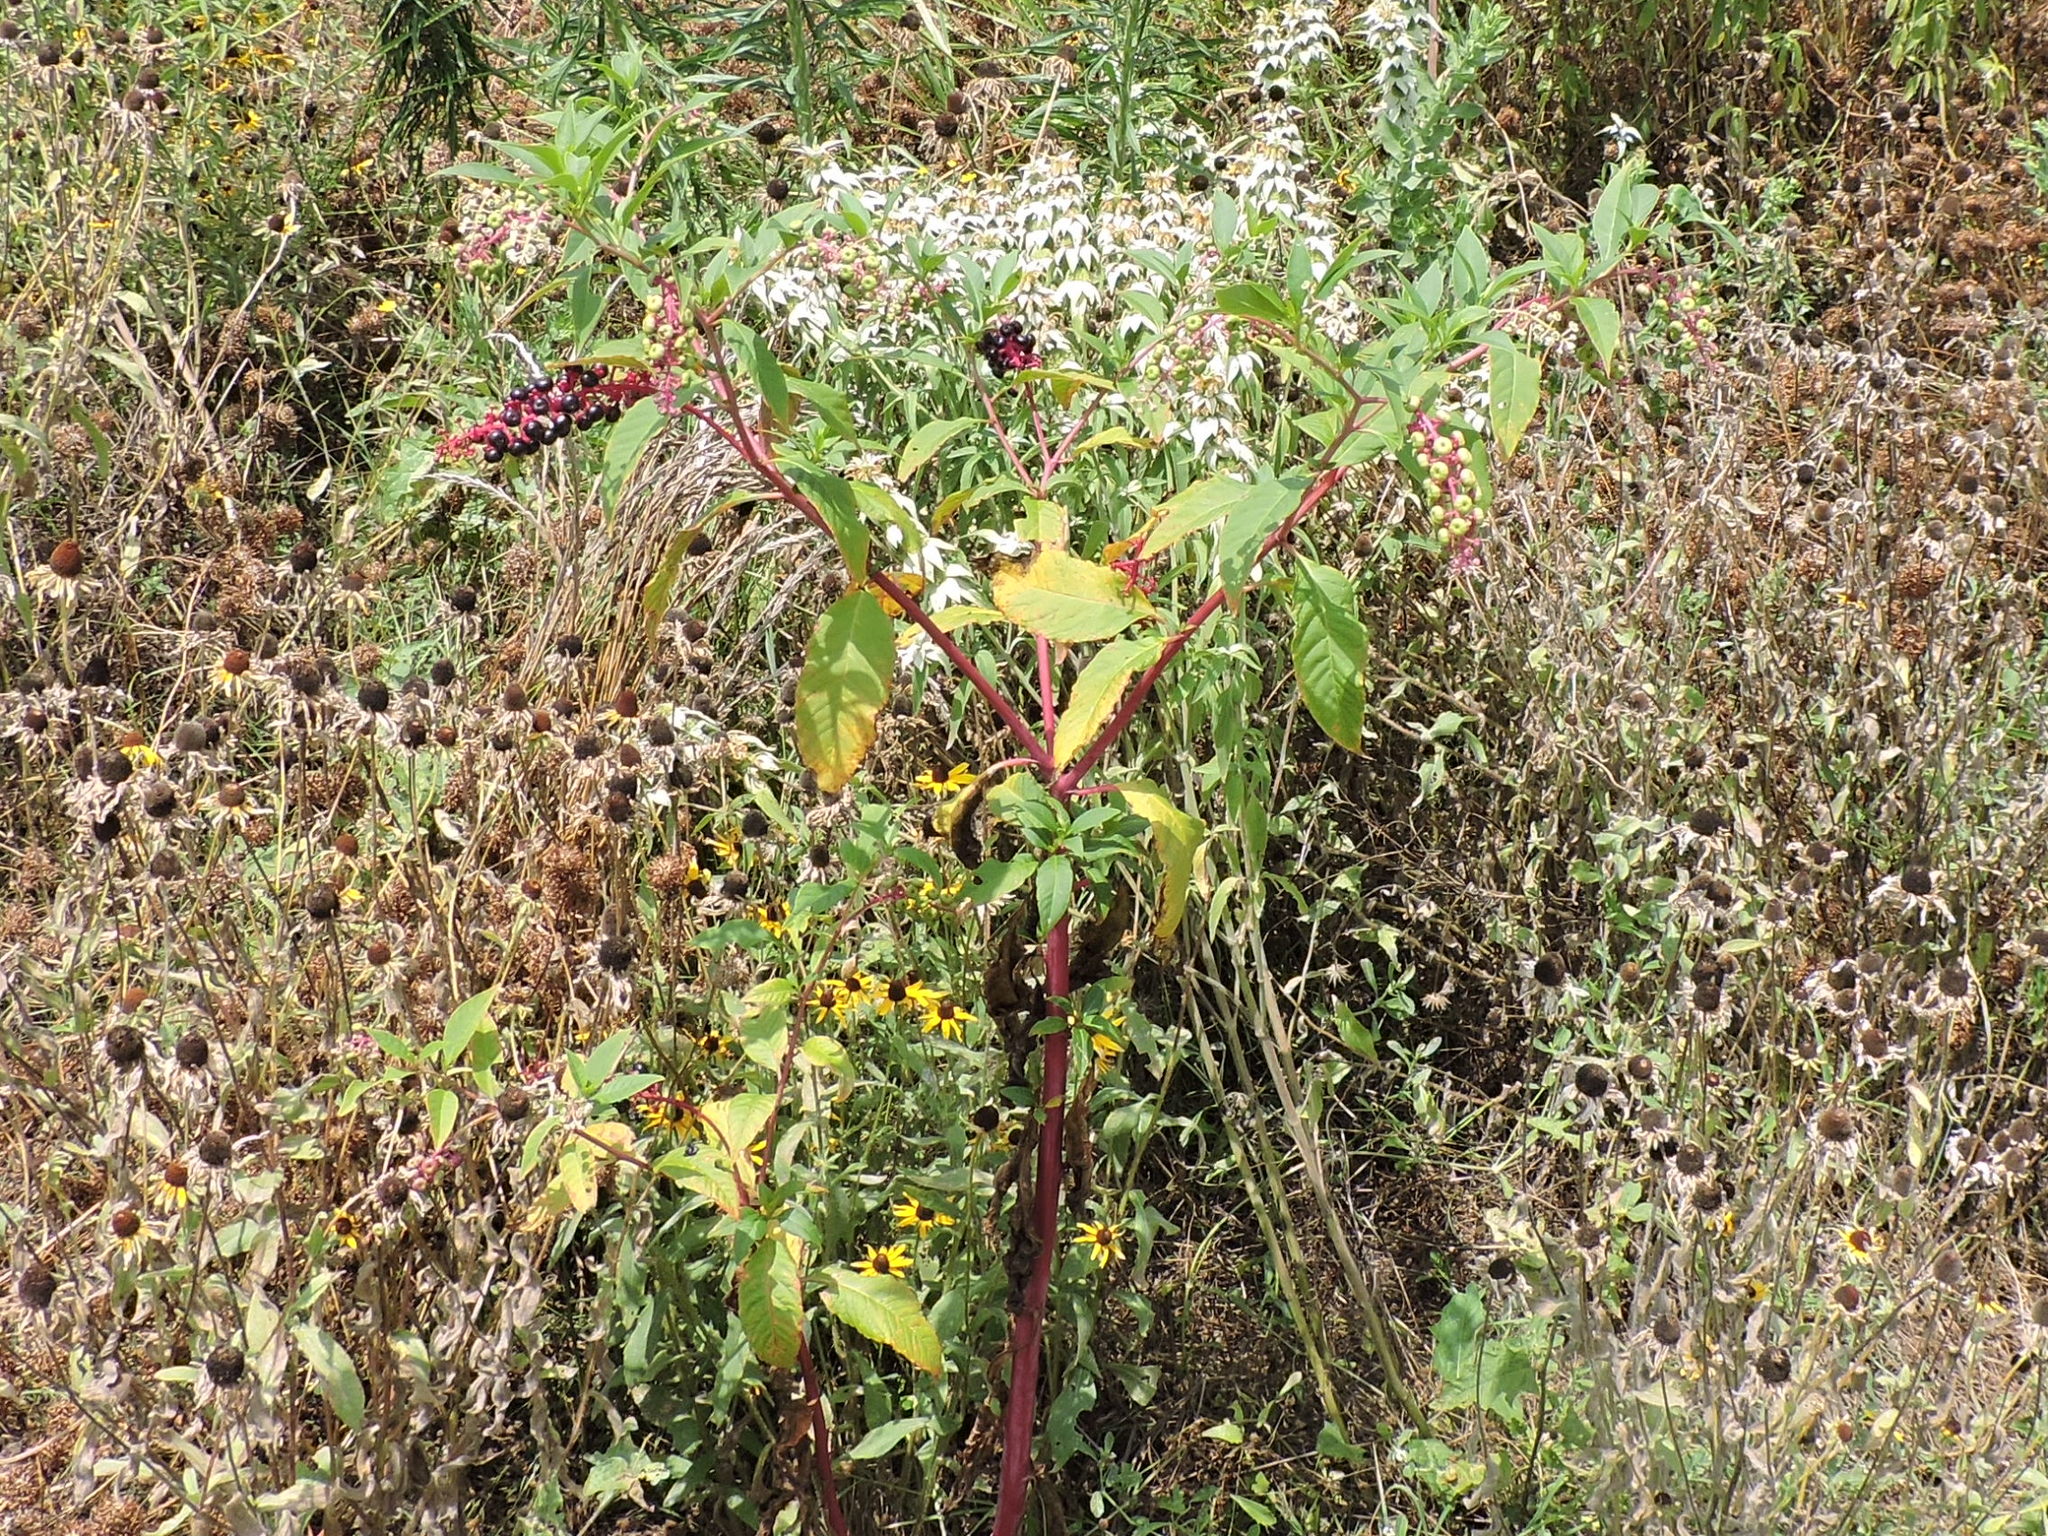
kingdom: Plantae
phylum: Tracheophyta
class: Magnoliopsida
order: Caryophyllales
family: Phytolaccaceae
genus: Phytolacca
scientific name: Phytolacca americana
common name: American pokeweed
